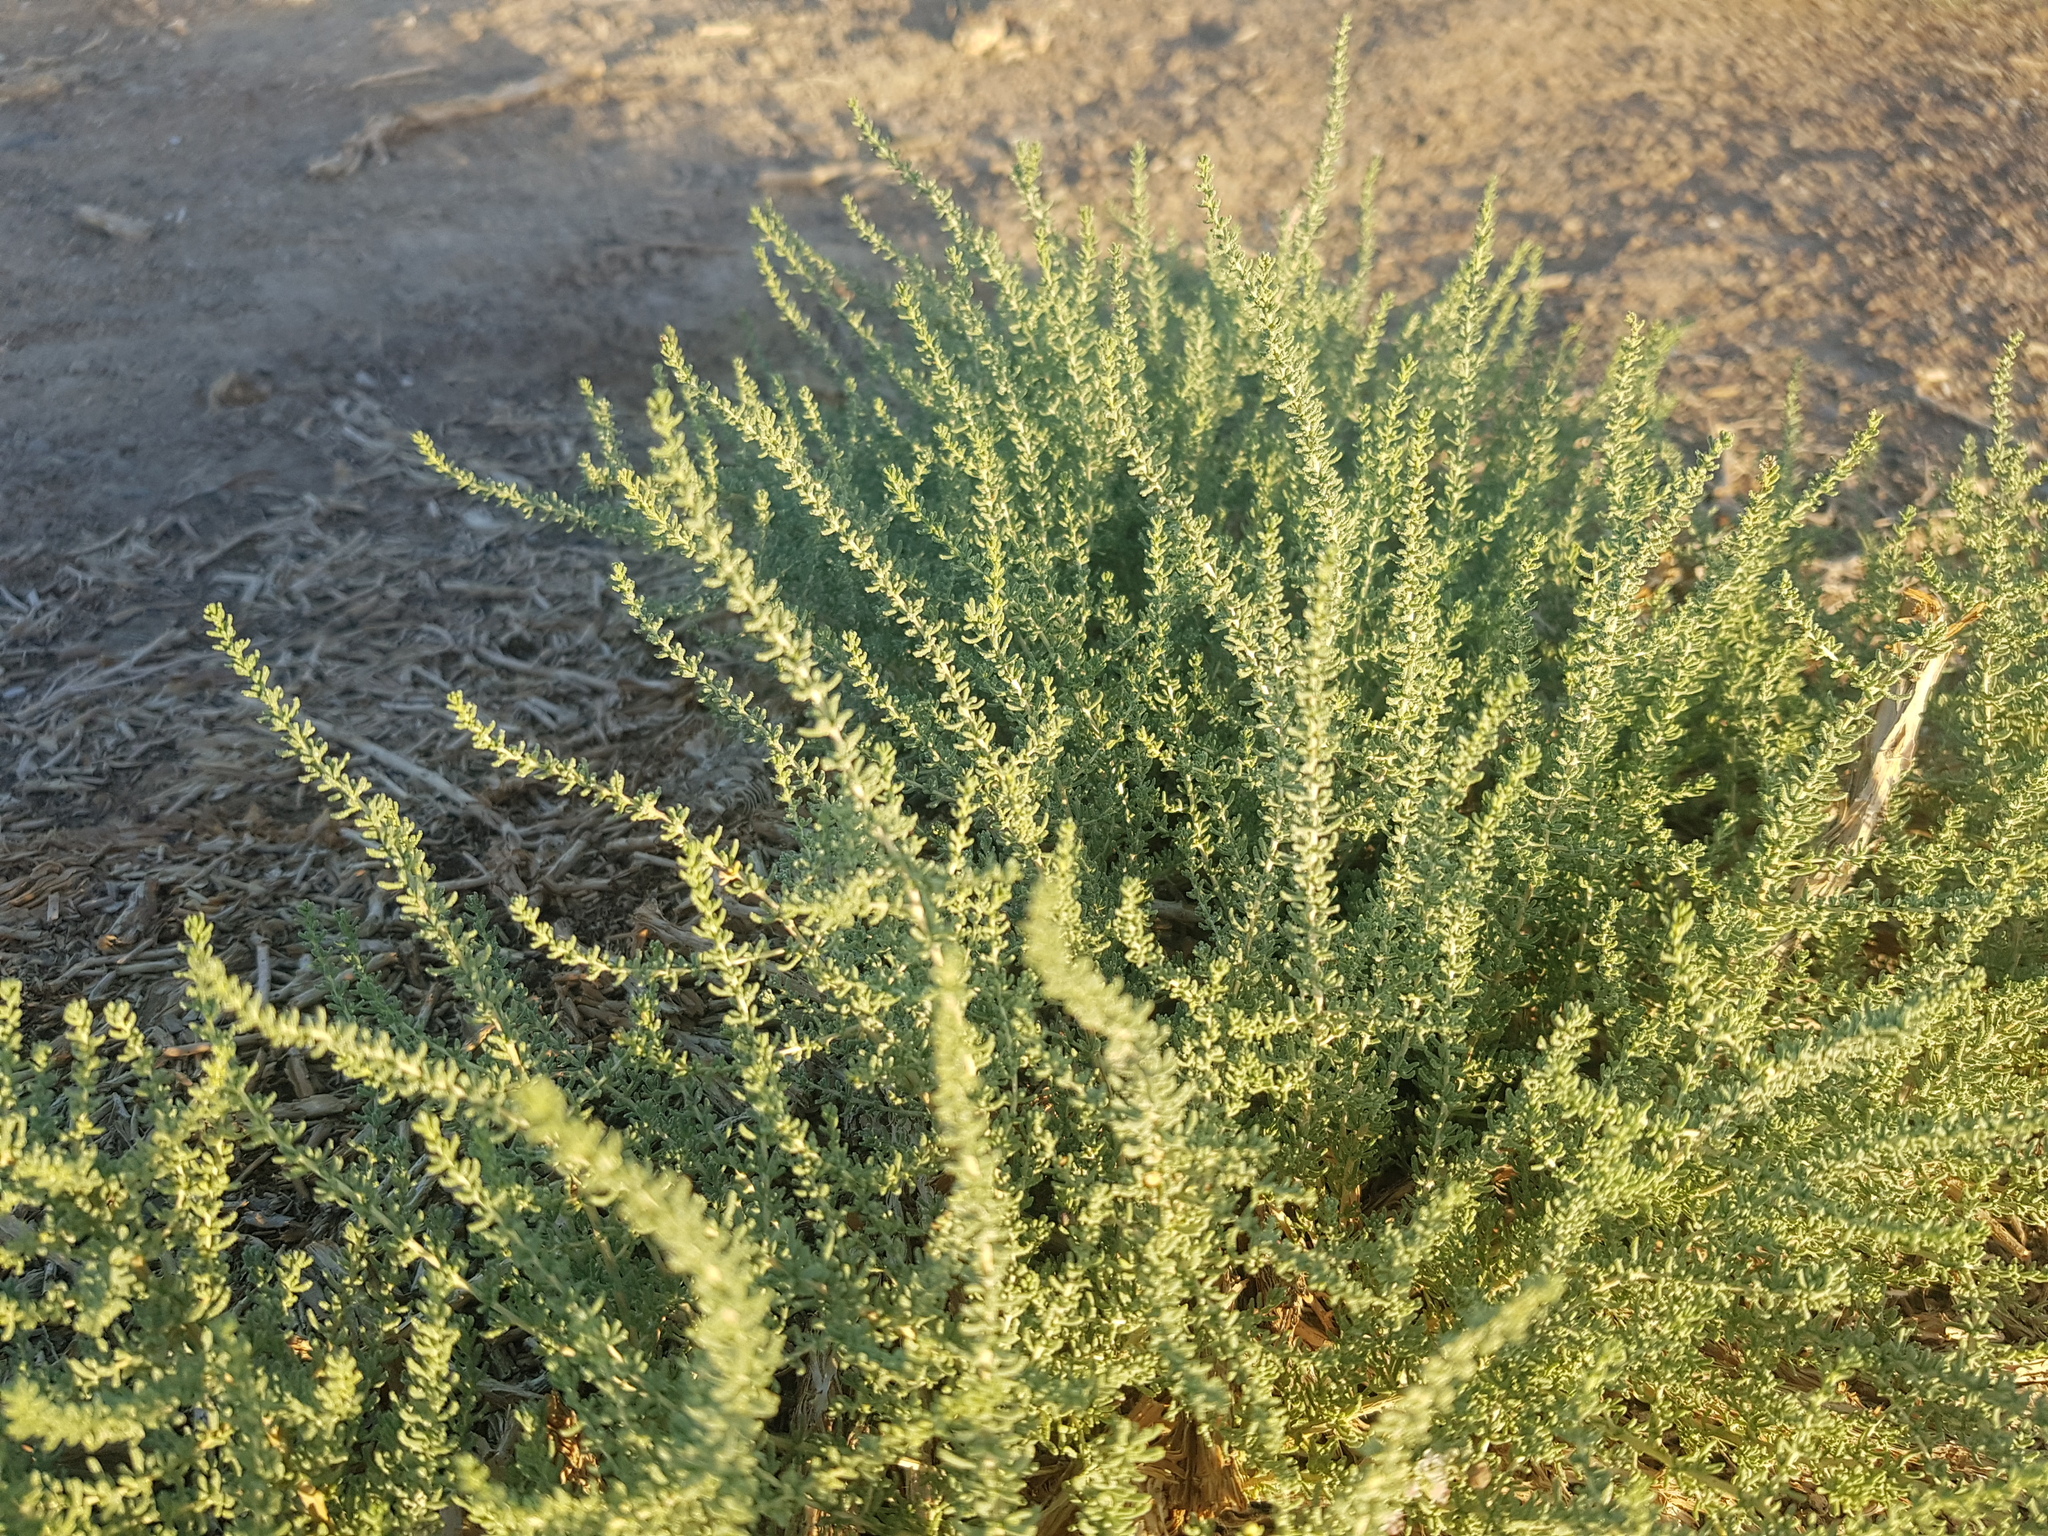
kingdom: Plantae
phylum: Tracheophyta
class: Magnoliopsida
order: Caryophyllales
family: Tamaricaceae
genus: Reaumuria
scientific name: Reaumuria songarica
